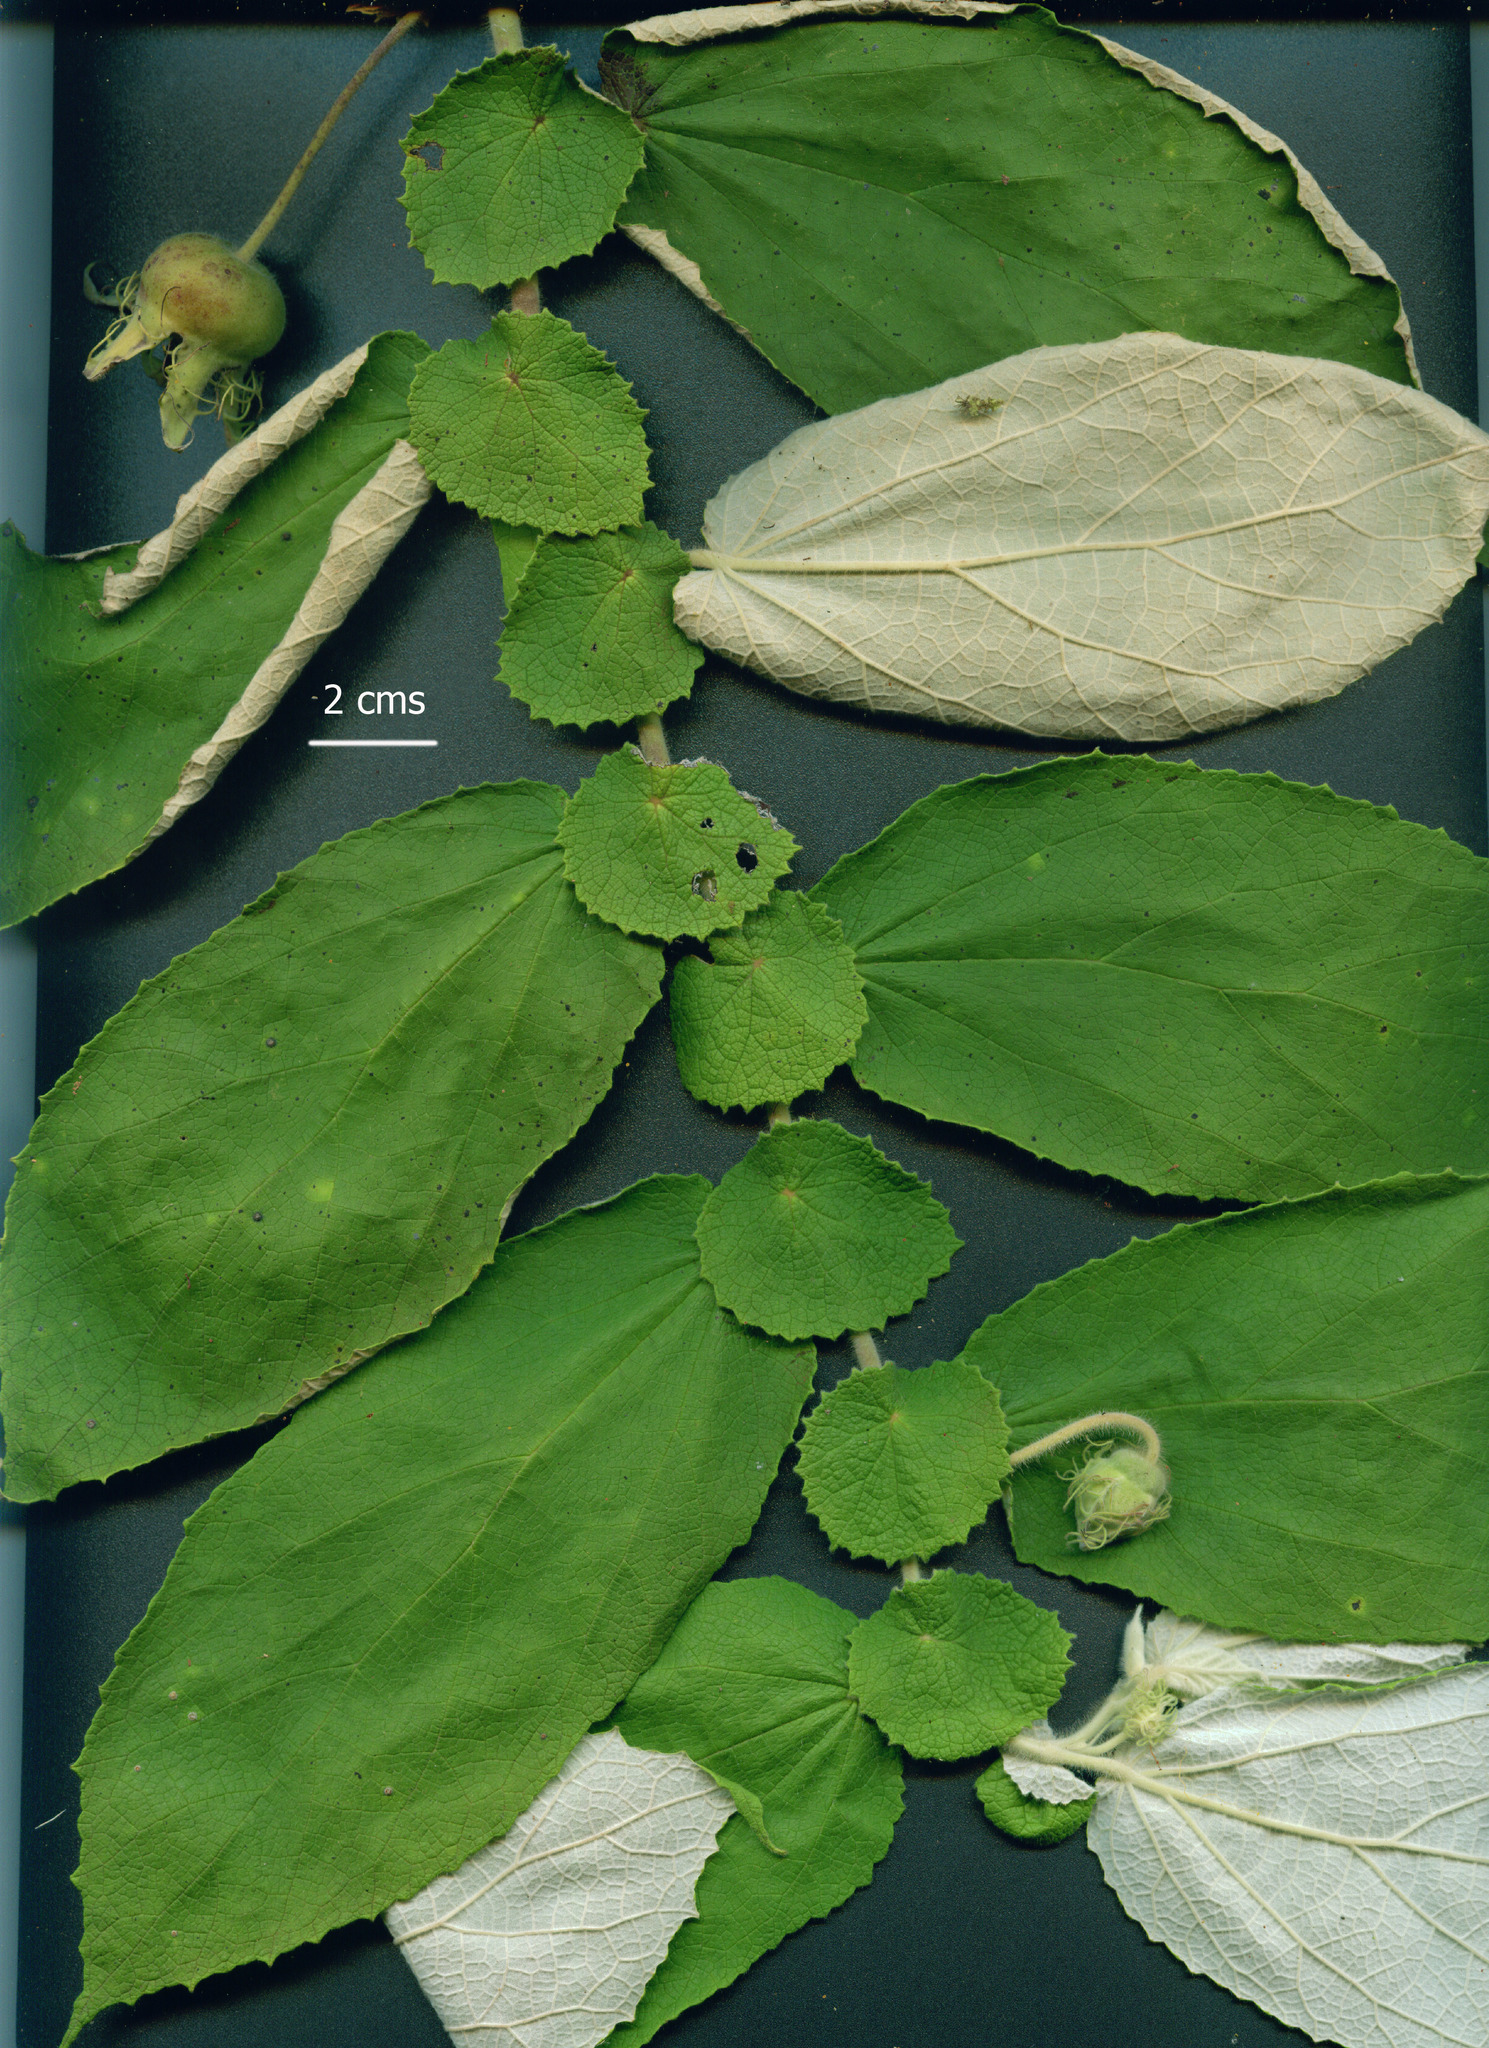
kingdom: Plantae
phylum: Tracheophyta
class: Magnoliopsida
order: Malvales
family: Muntingiaceae
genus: Dicraspidia
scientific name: Dicraspidia donnell-smithii
